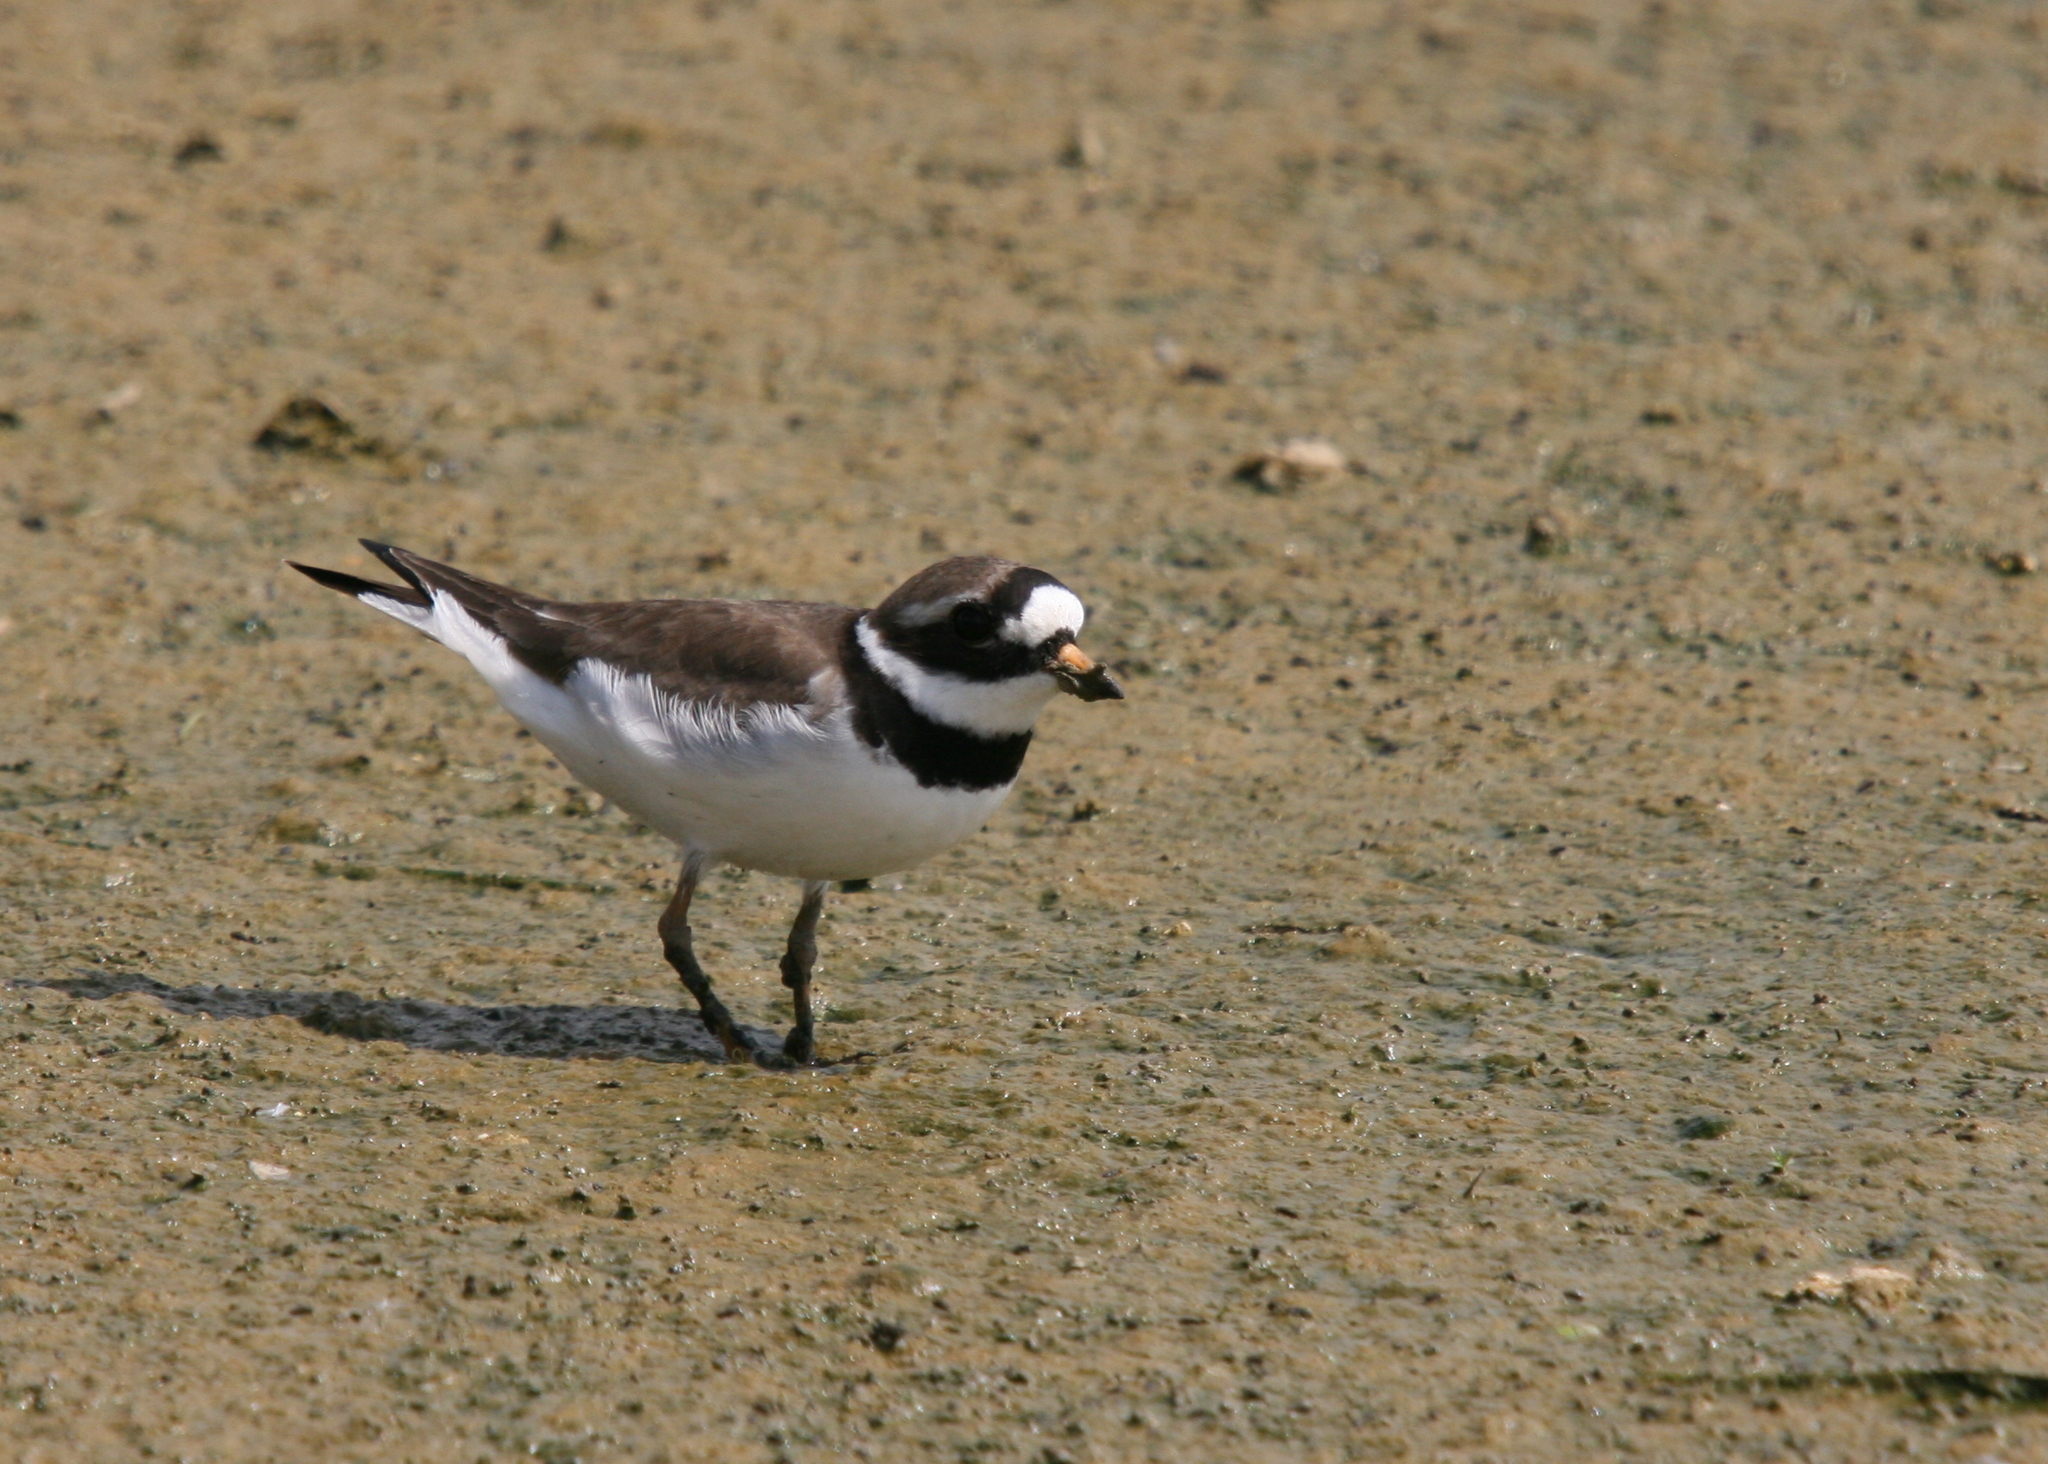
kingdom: Animalia
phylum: Chordata
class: Aves
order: Charadriiformes
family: Charadriidae
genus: Charadrius
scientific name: Charadrius hiaticula
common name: Common ringed plover
